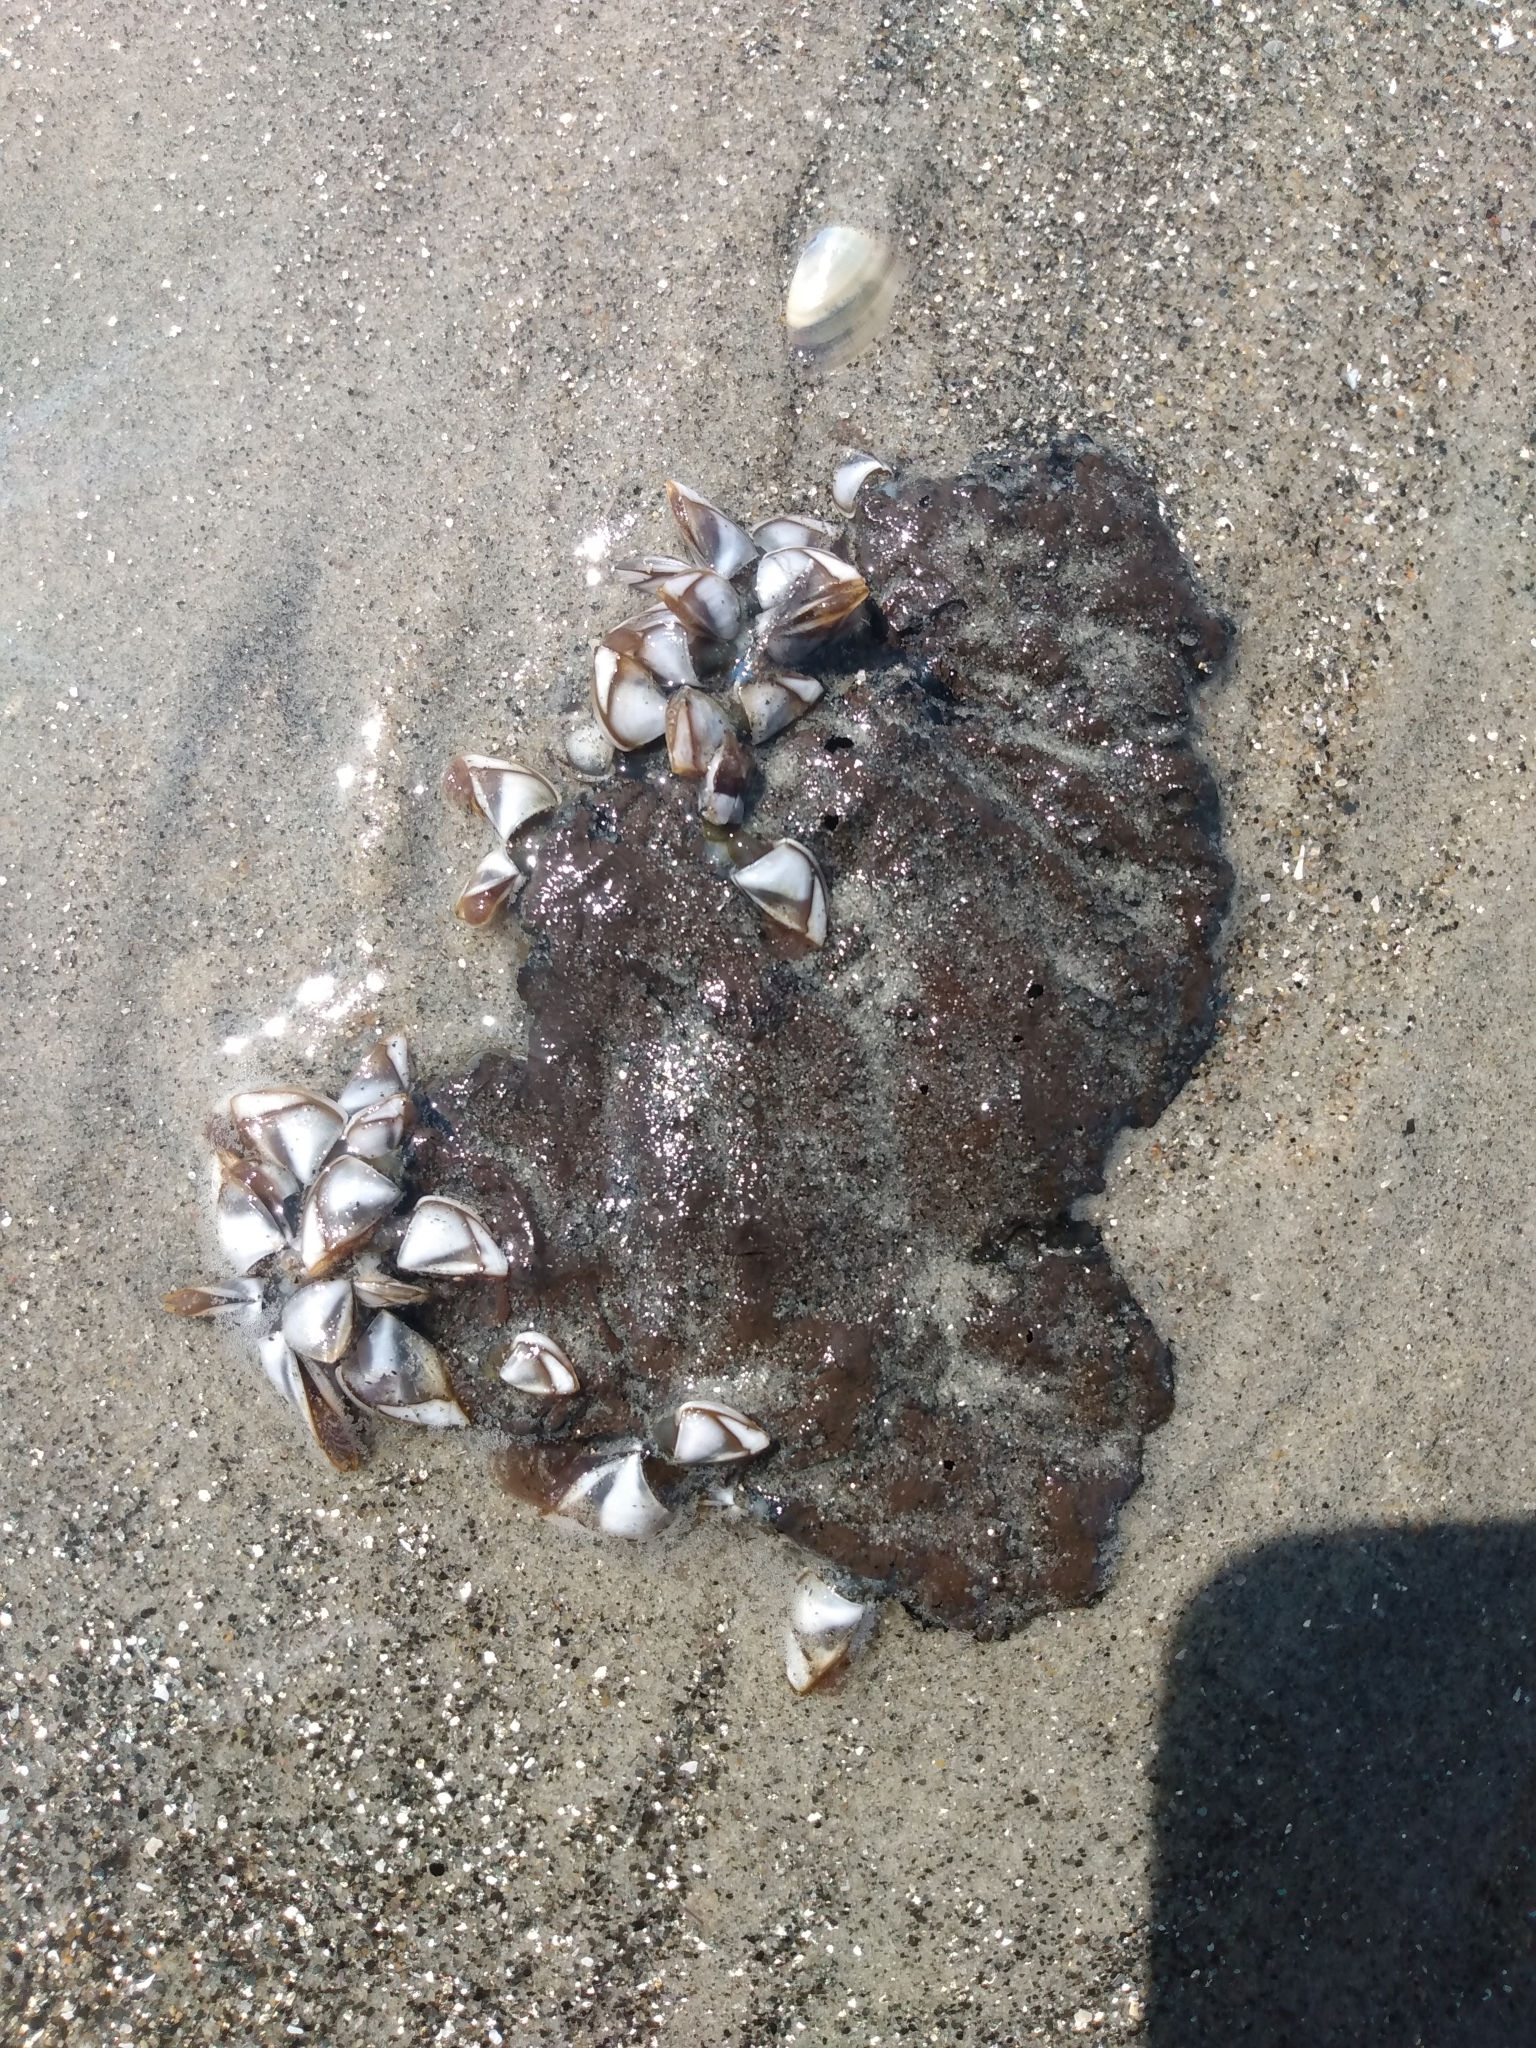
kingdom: Animalia
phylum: Arthropoda
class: Maxillopoda
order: Pedunculata
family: Lepadidae
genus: Lepas
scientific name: Lepas pacifica
